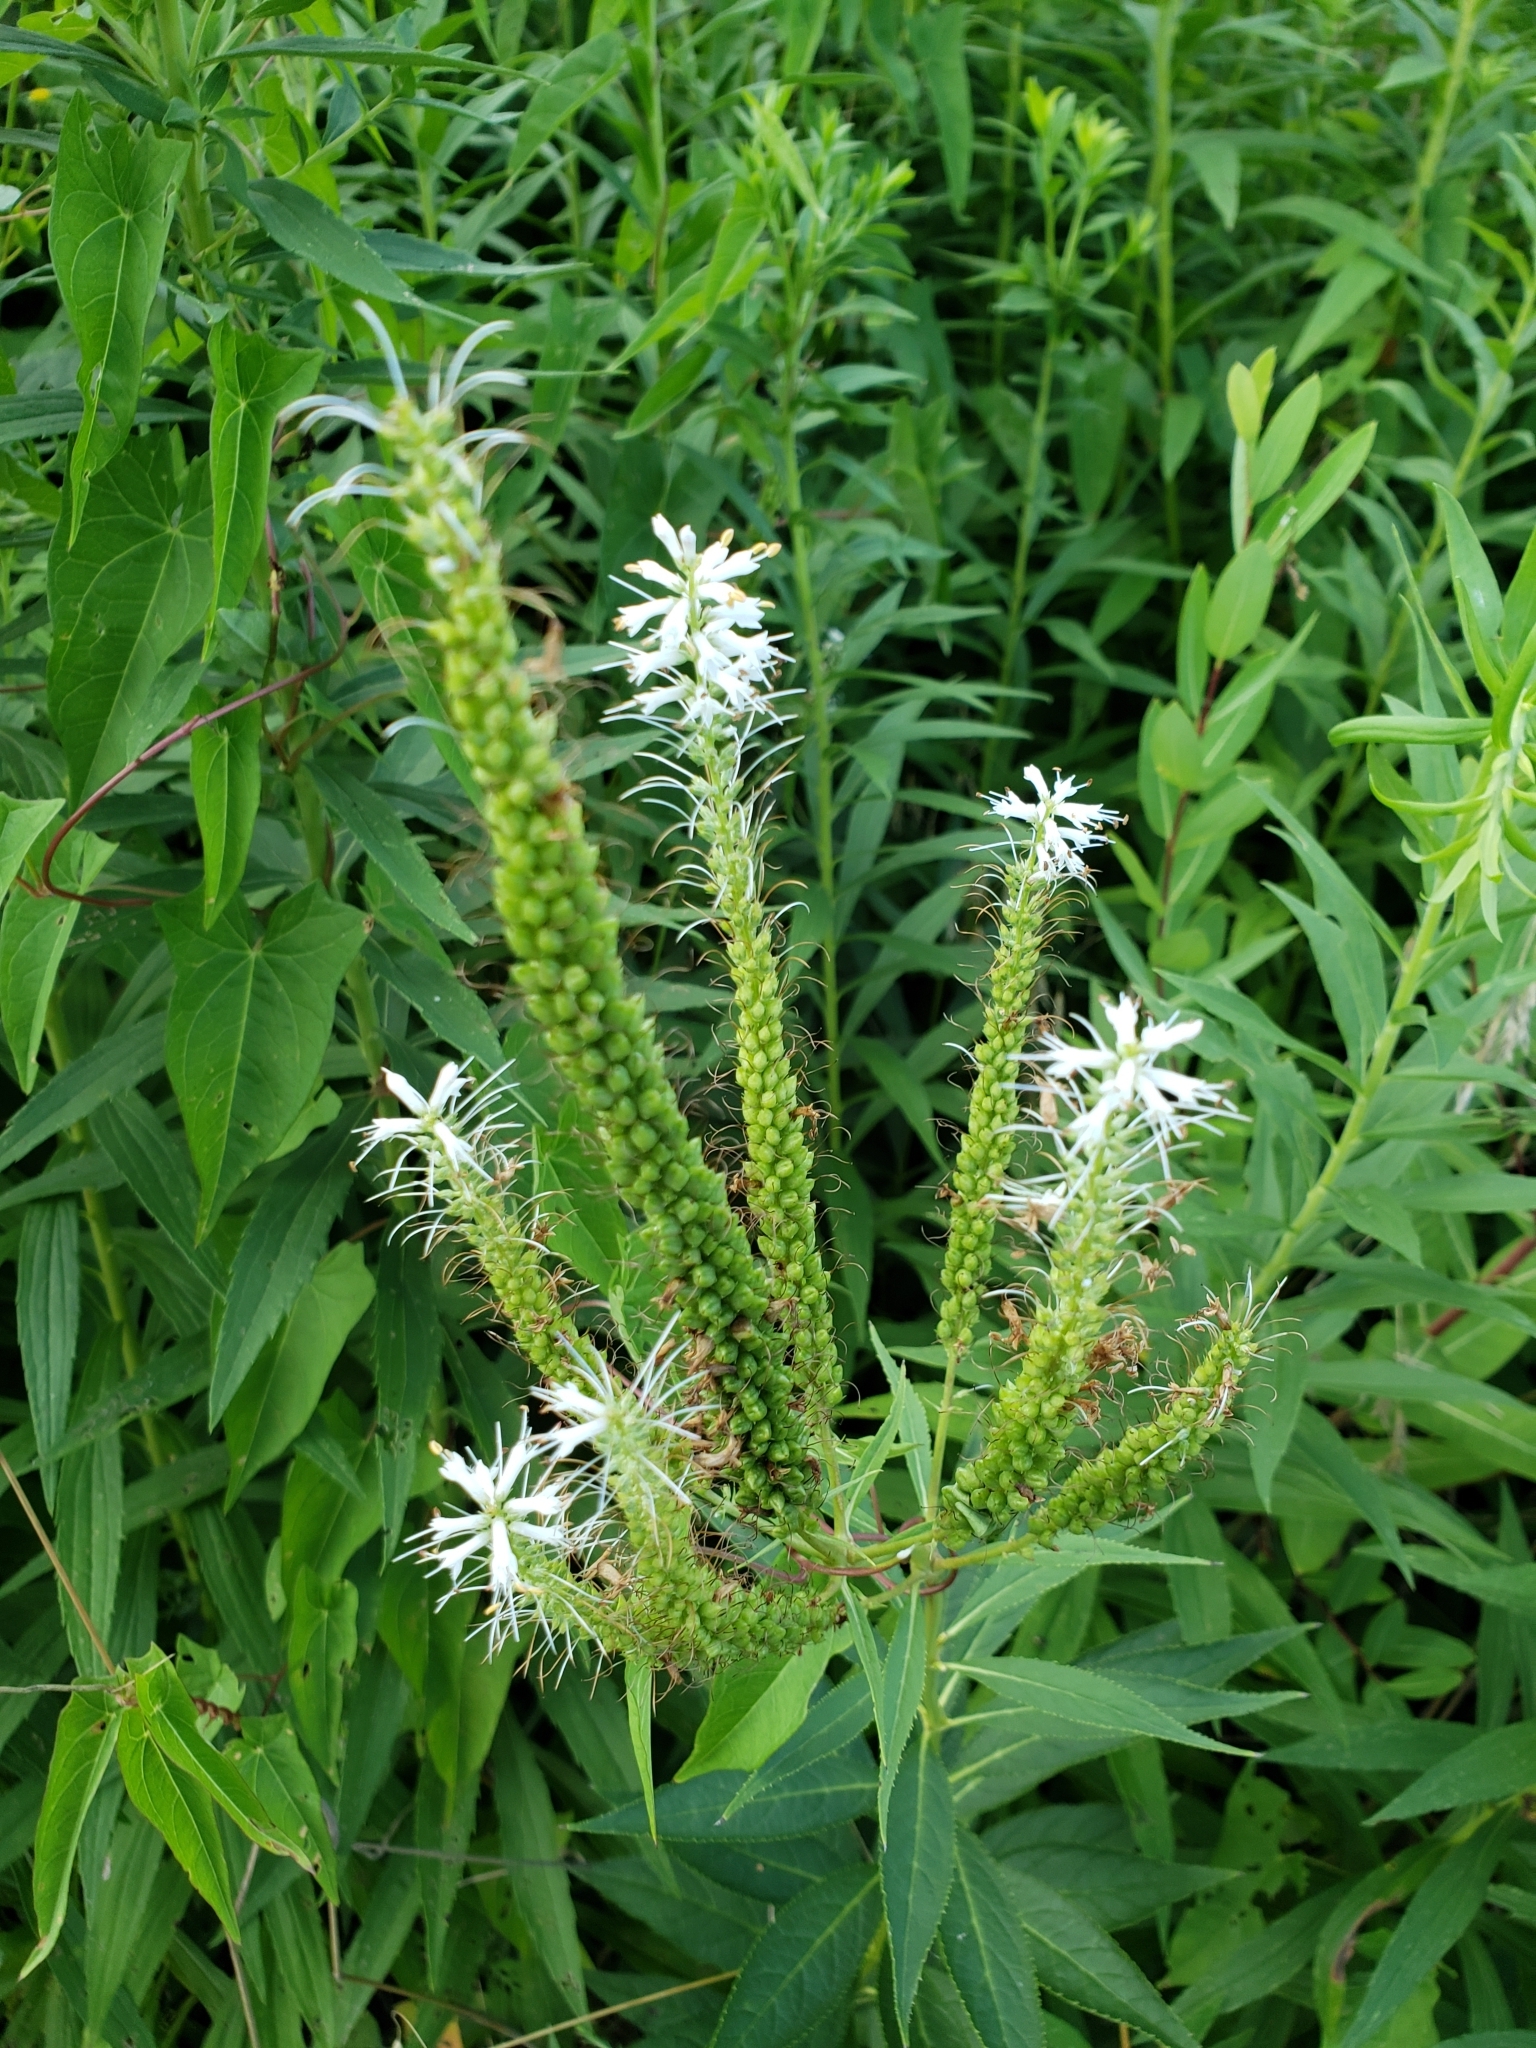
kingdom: Plantae
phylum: Tracheophyta
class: Magnoliopsida
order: Lamiales
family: Plantaginaceae
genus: Veronicastrum
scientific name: Veronicastrum virginicum
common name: Blackroot
